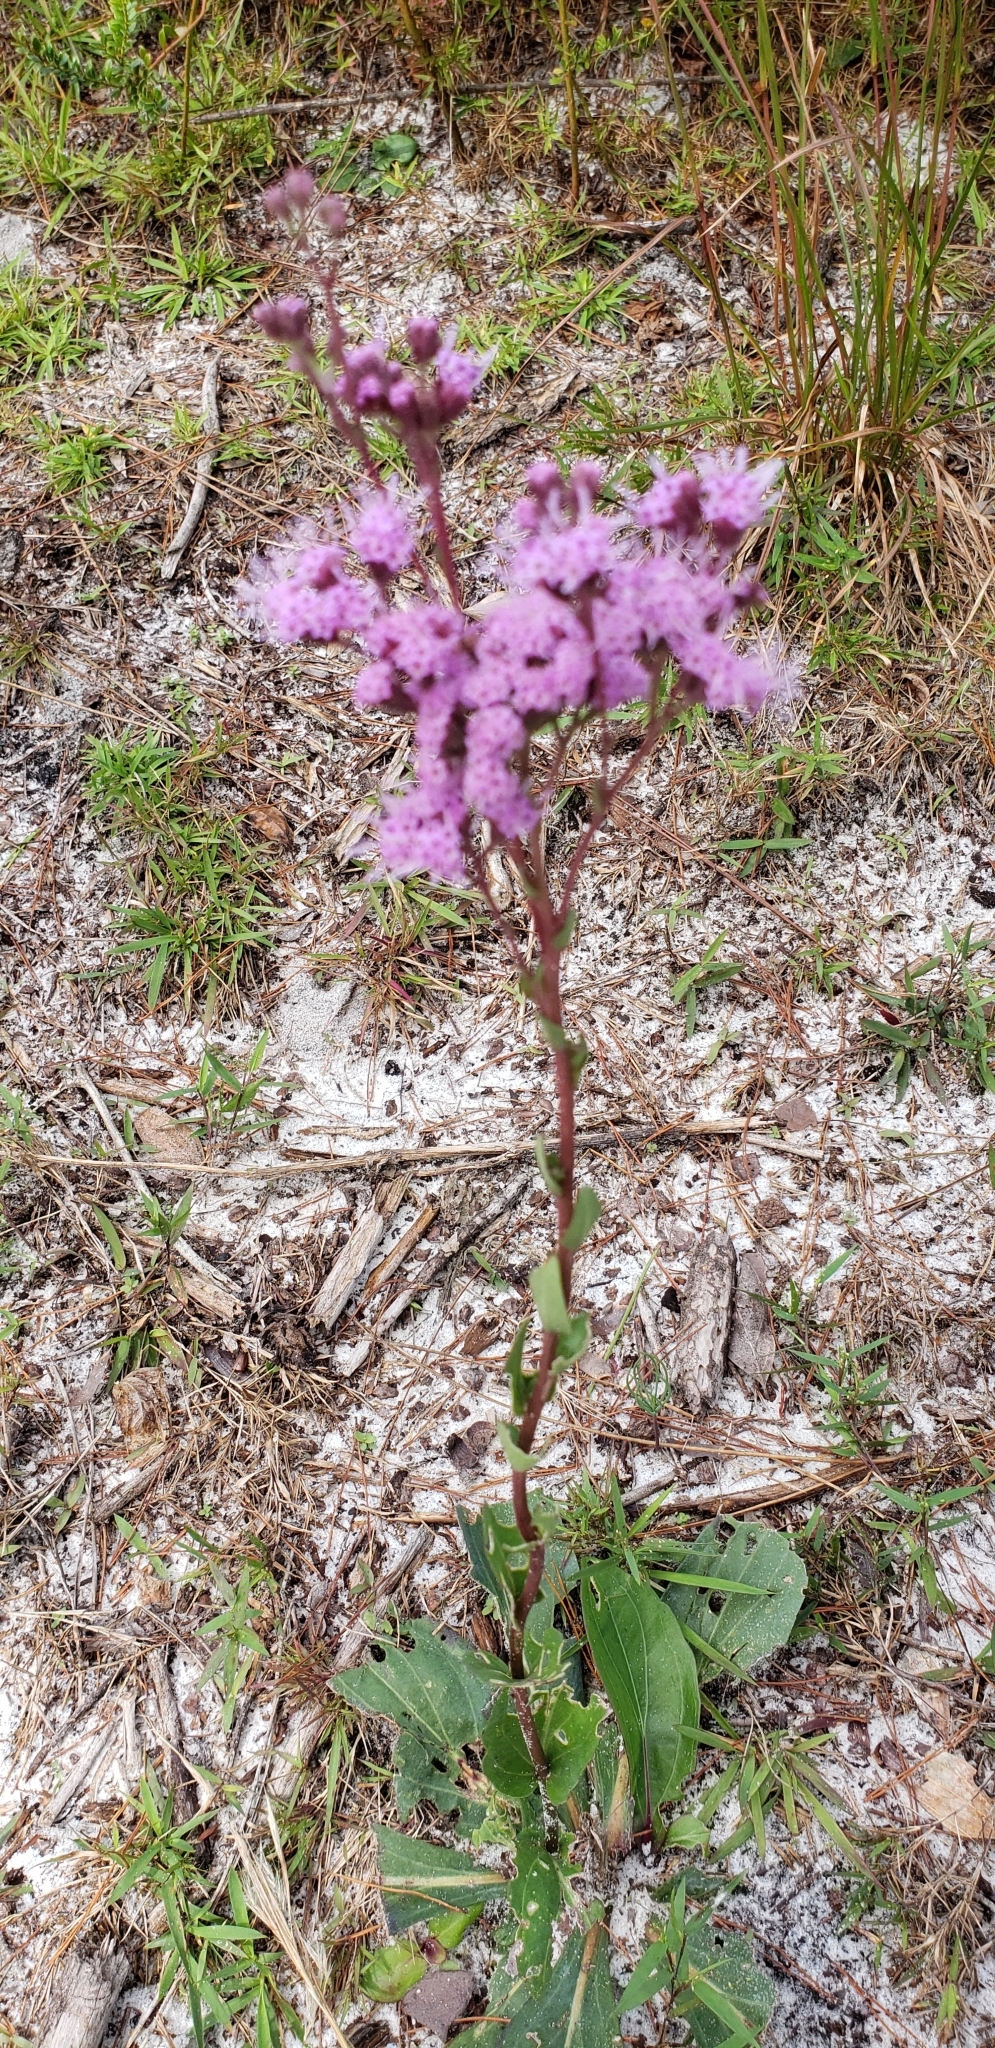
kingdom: Plantae
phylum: Tracheophyta
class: Magnoliopsida
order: Asterales
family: Asteraceae
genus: Carphephorus
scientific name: Carphephorus odoratissimus
